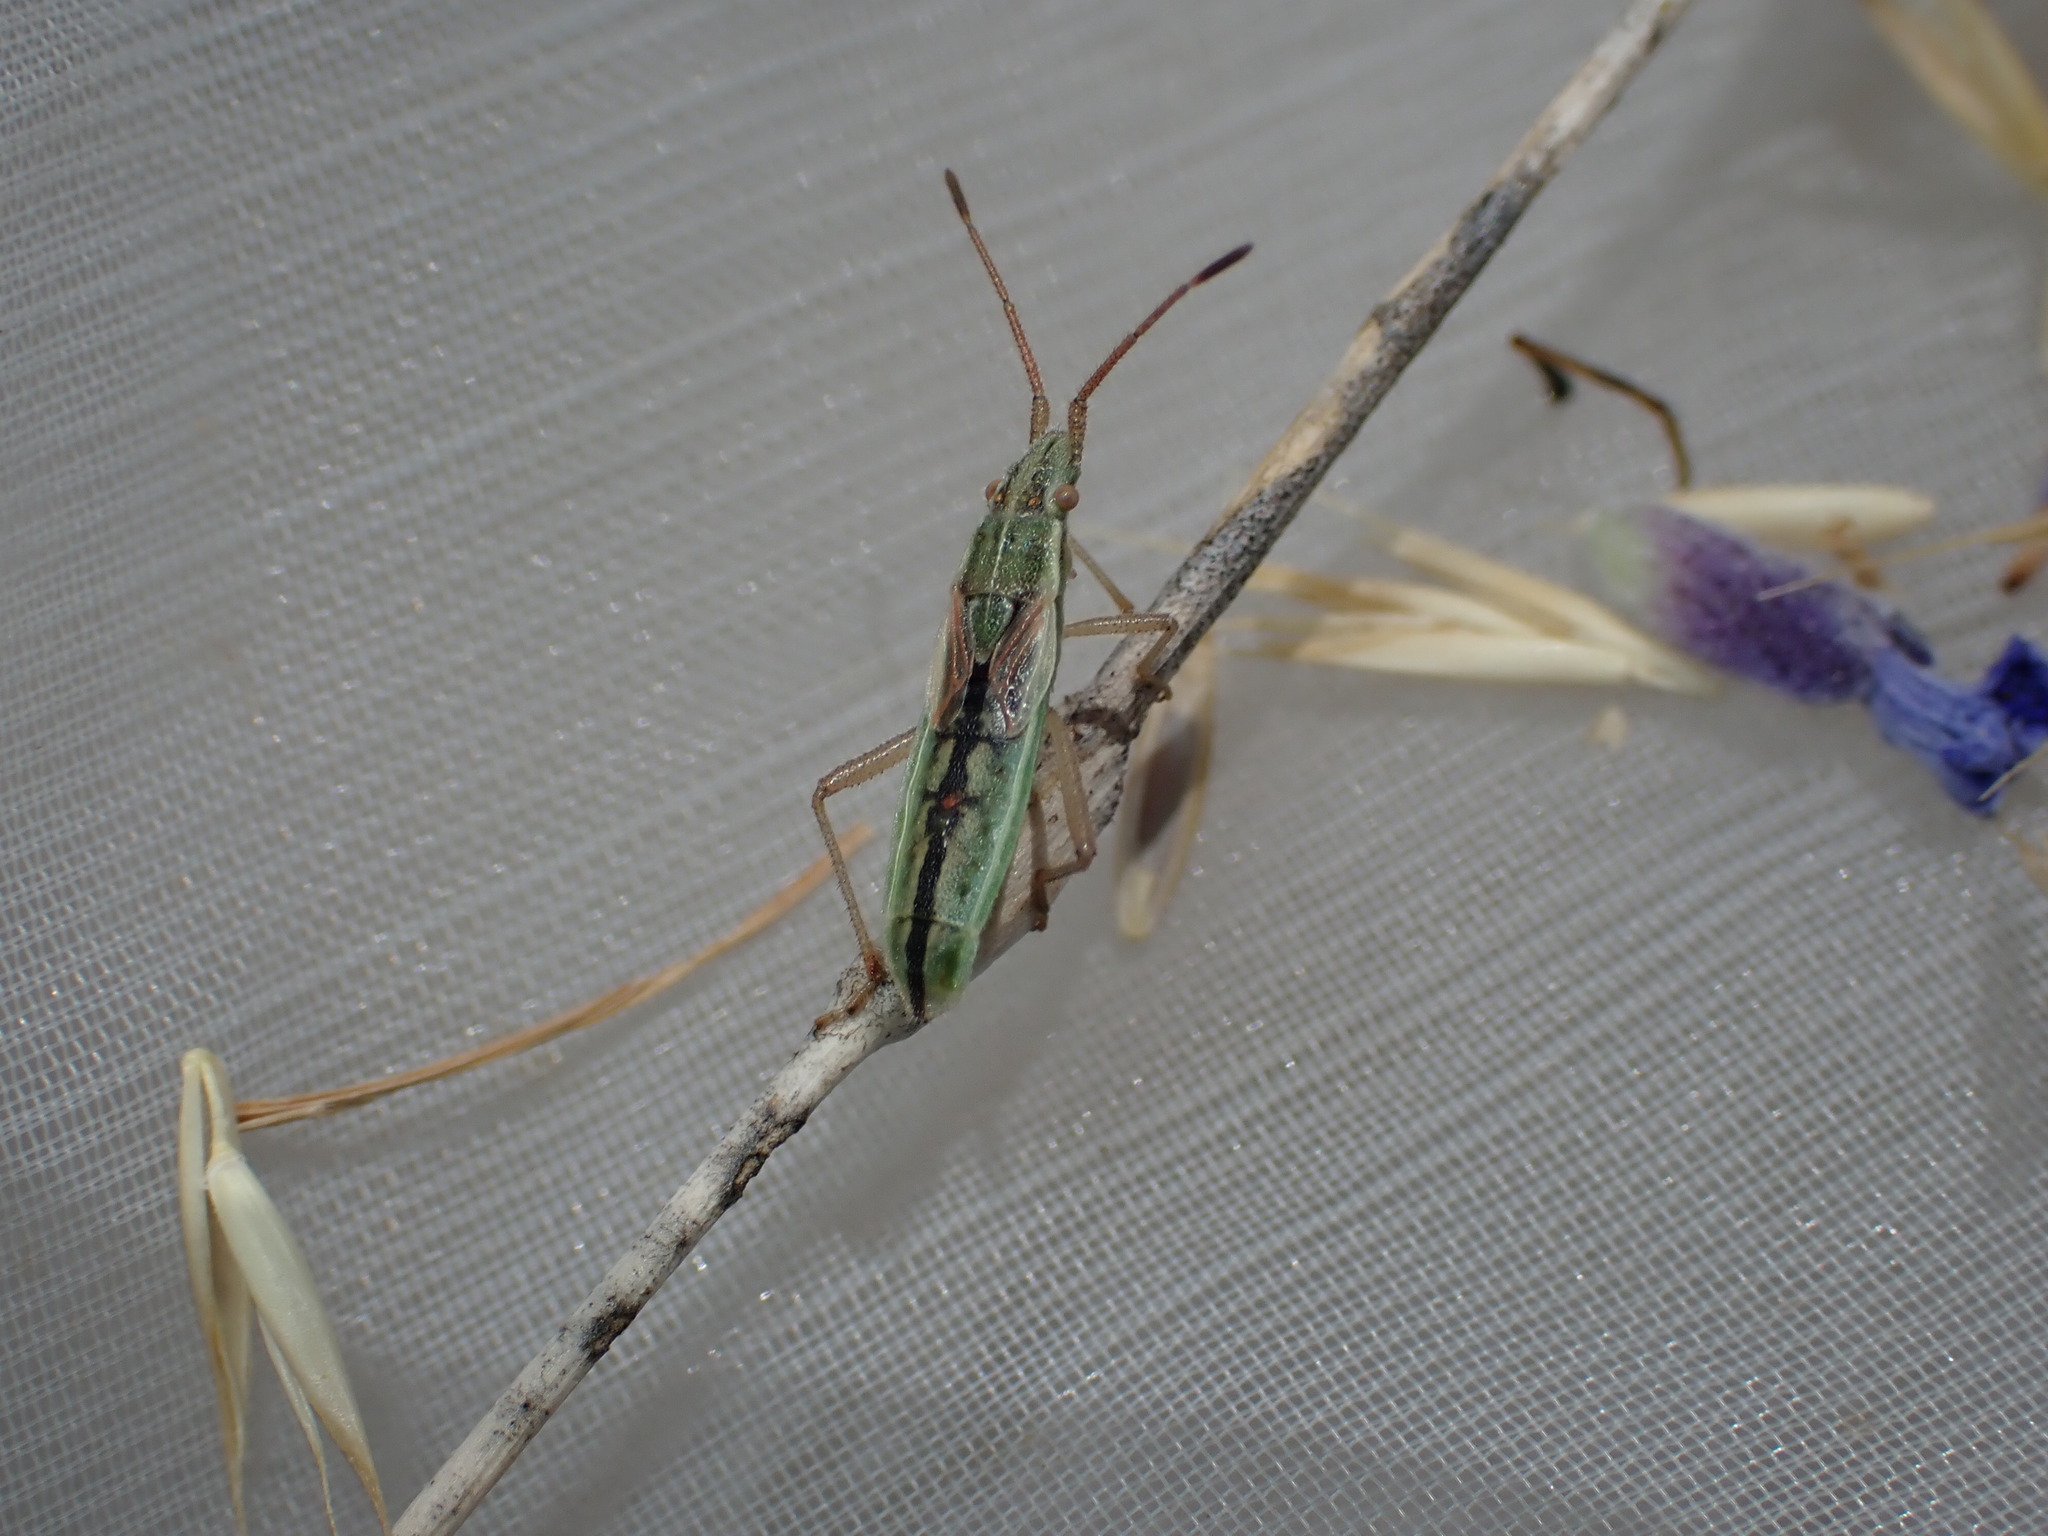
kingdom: Animalia
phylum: Arthropoda
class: Insecta
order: Hemiptera
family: Rhopalidae
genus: Myrmus
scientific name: Myrmus miriformis
